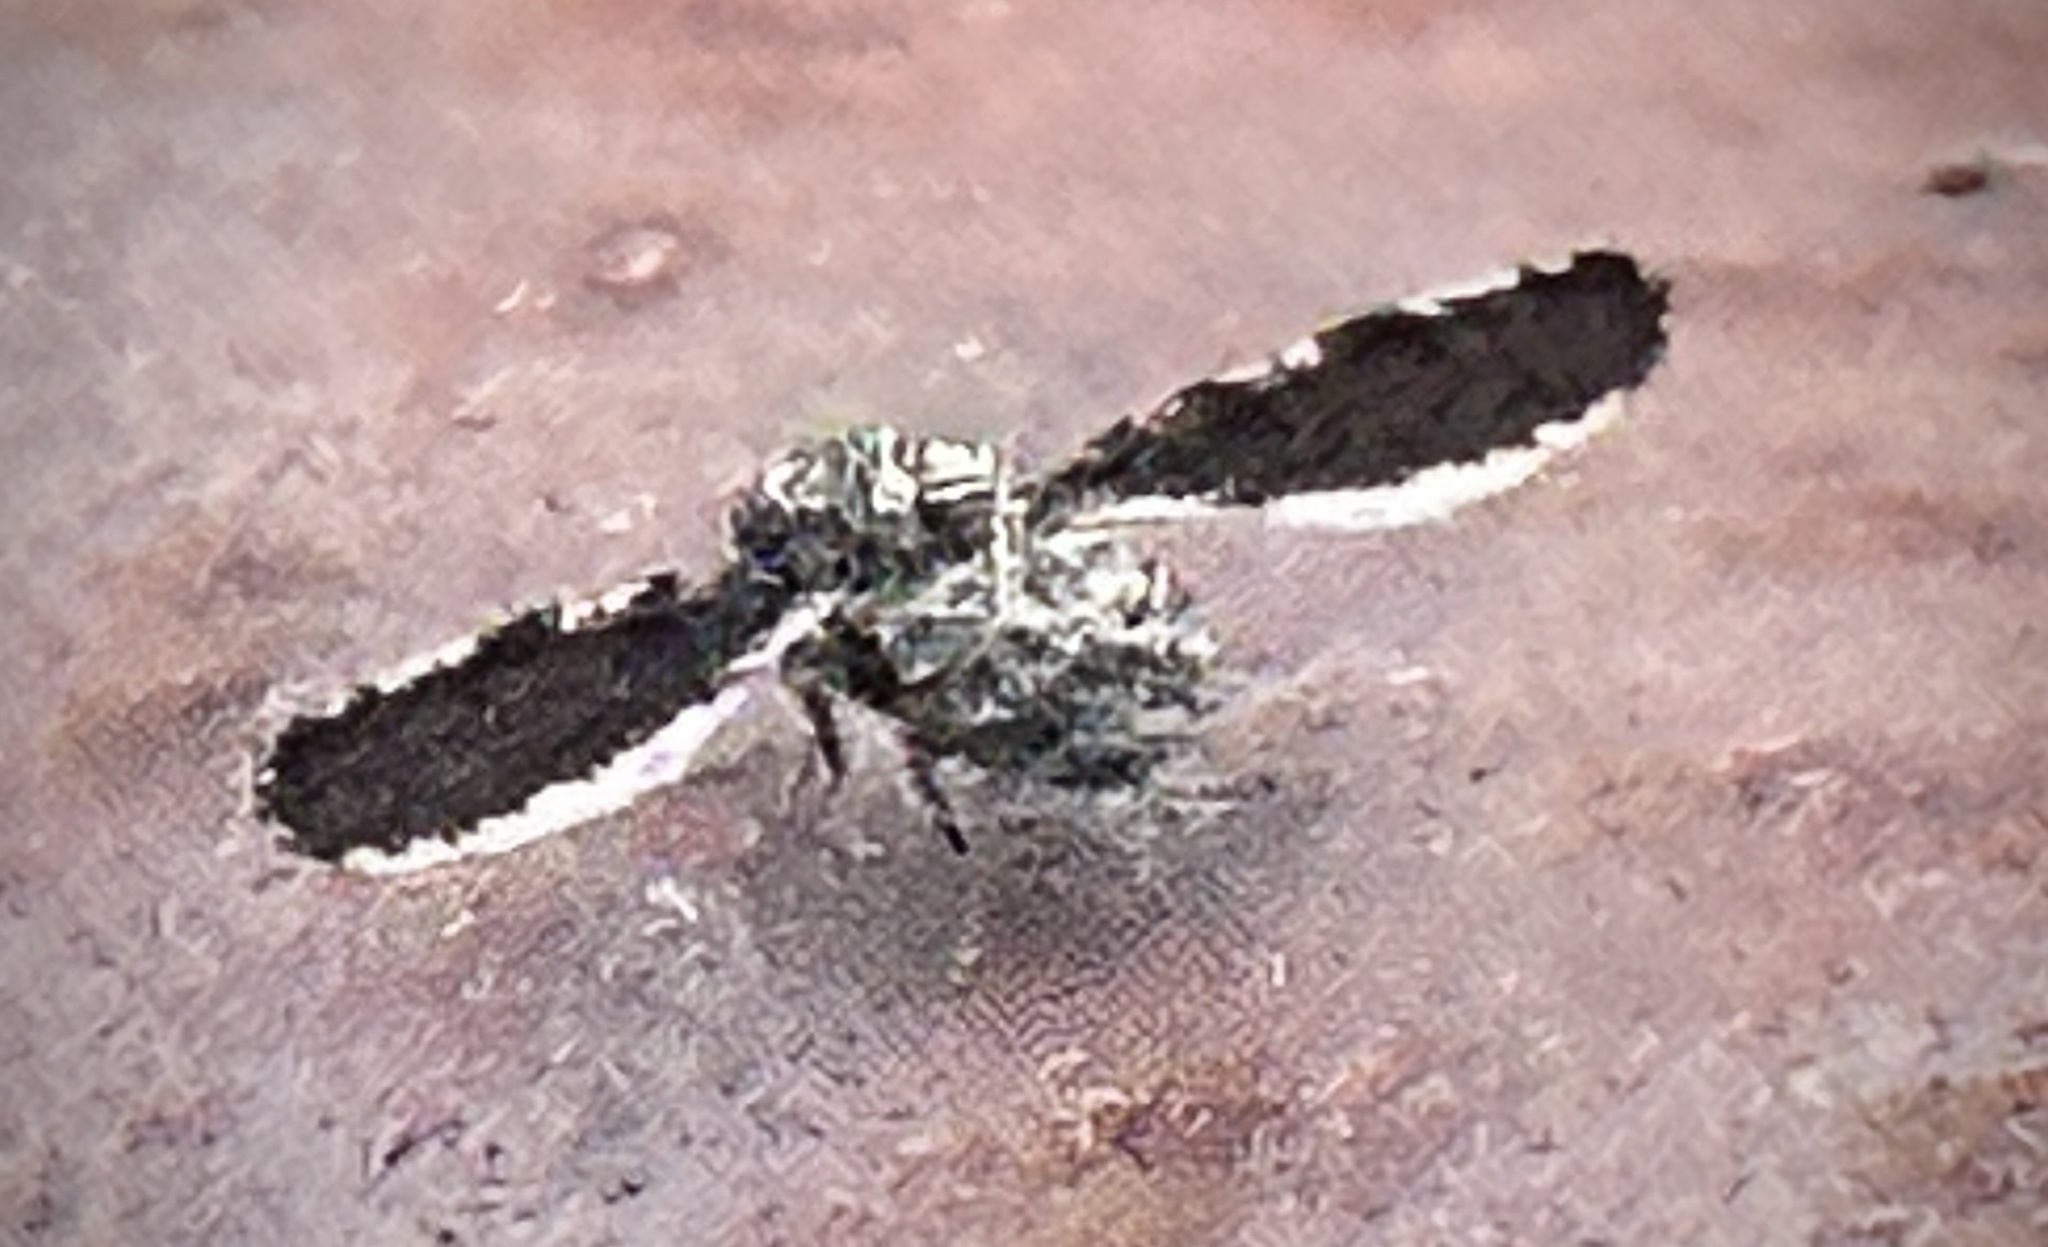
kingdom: Animalia
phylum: Arthropoda
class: Insecta
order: Diptera
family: Ulidiidae
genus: Callopistromyia
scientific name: Callopistromyia strigula
